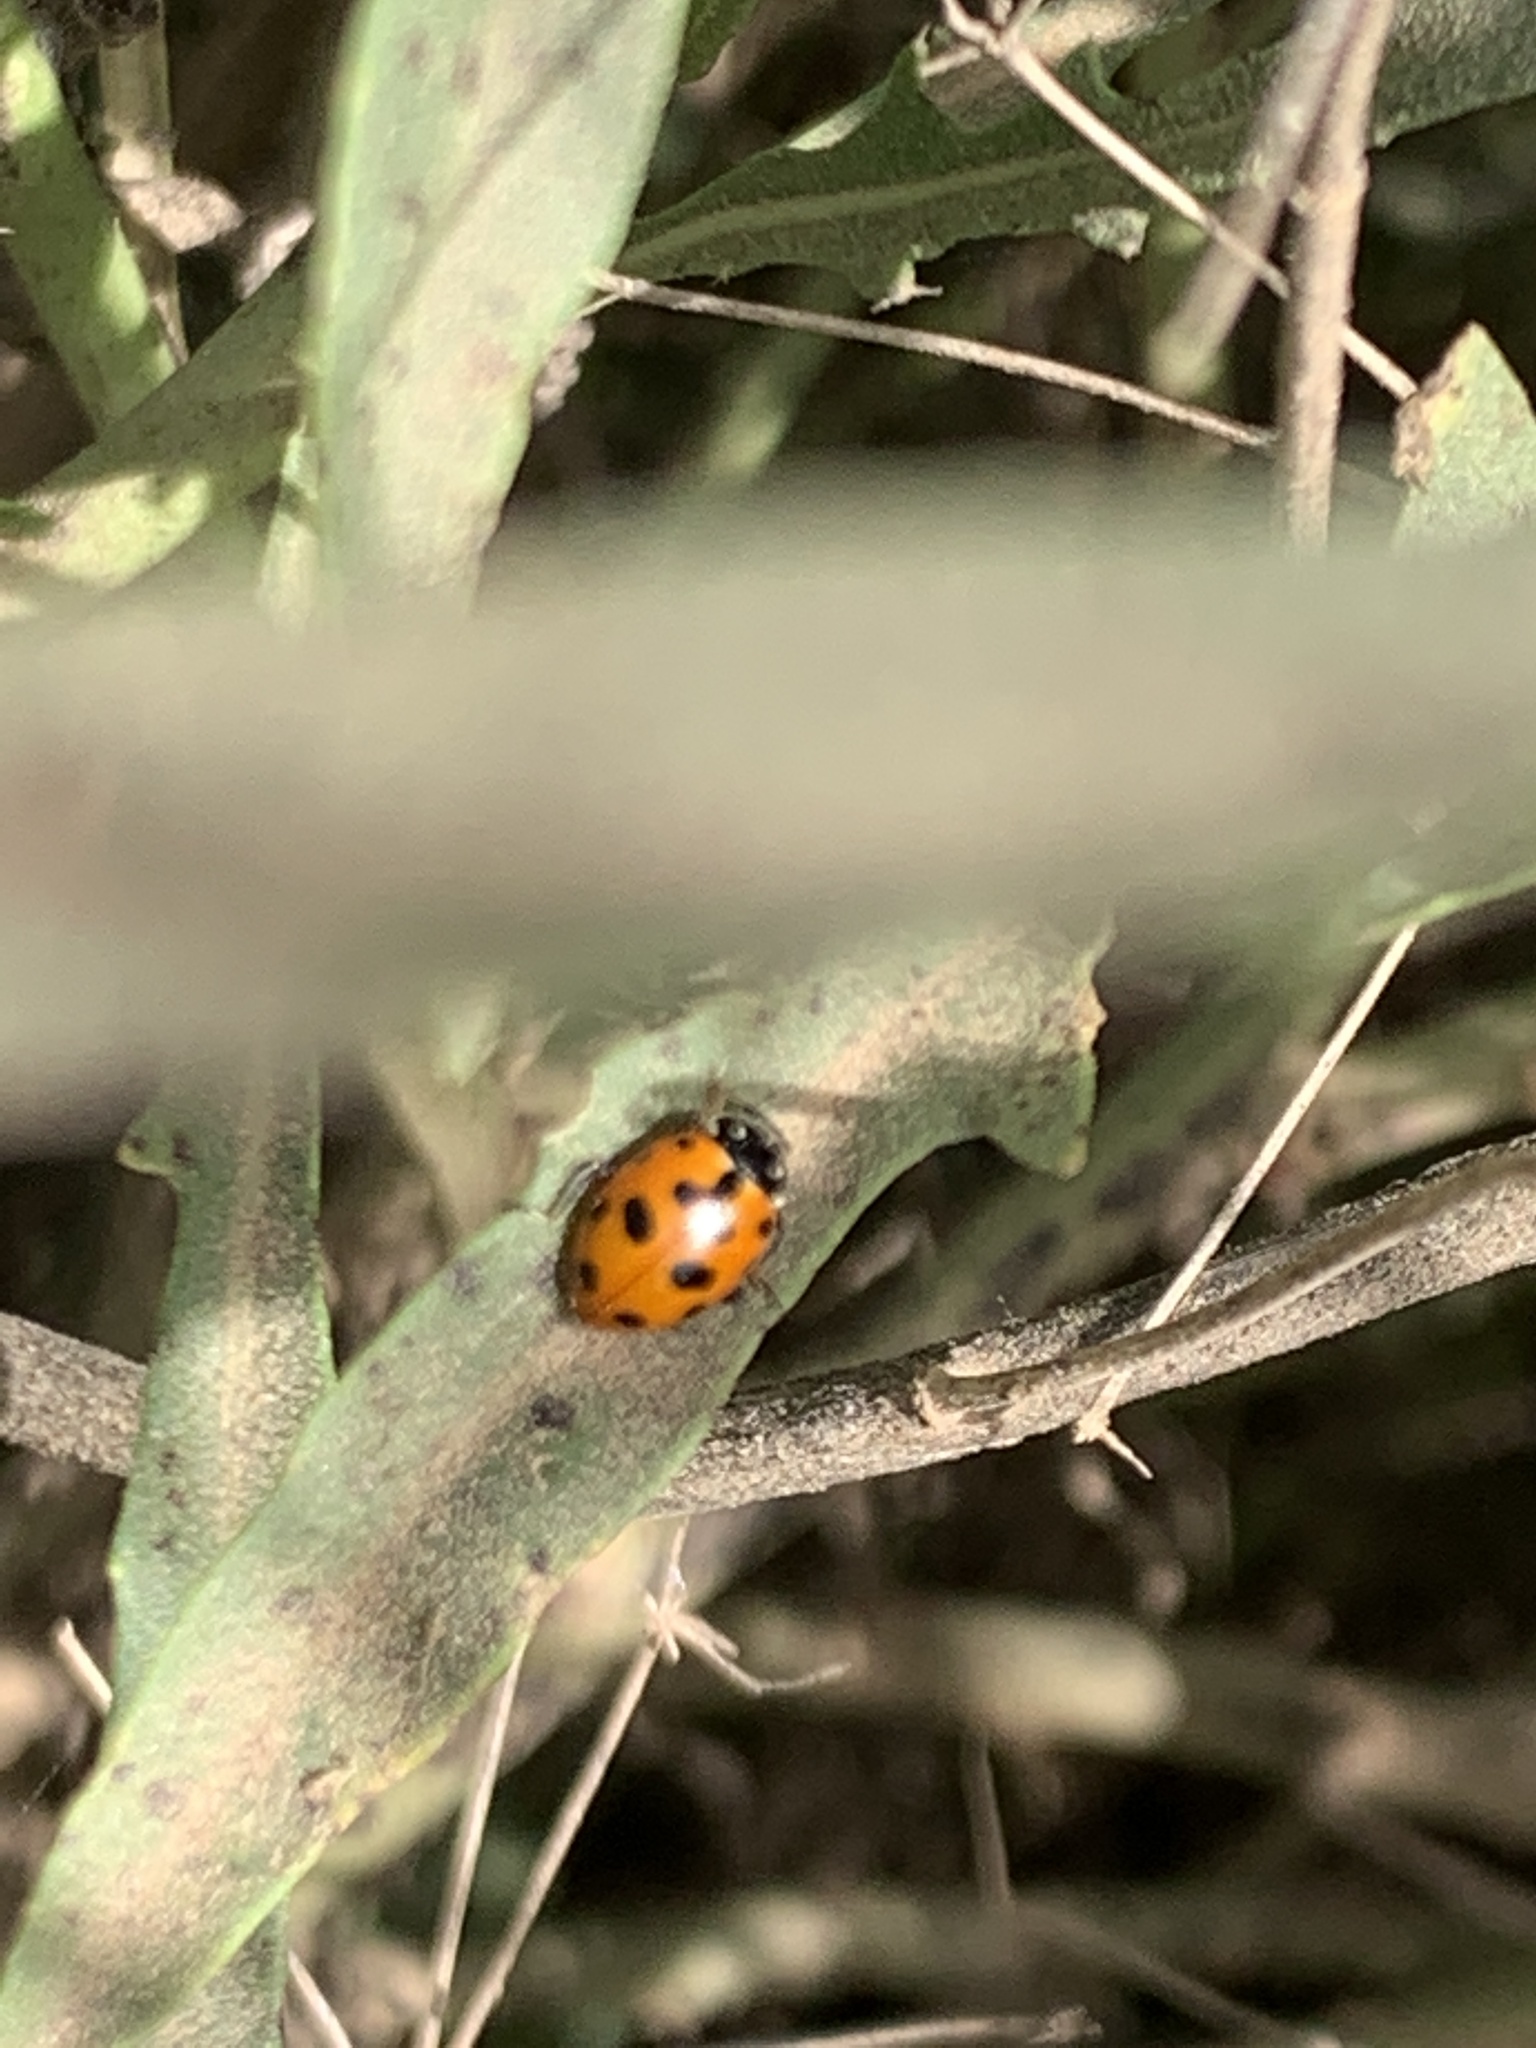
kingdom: Animalia
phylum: Arthropoda
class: Insecta
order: Coleoptera
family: Coccinellidae
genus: Hippodamia
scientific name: Hippodamia variegata
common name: Ladybird beetle
